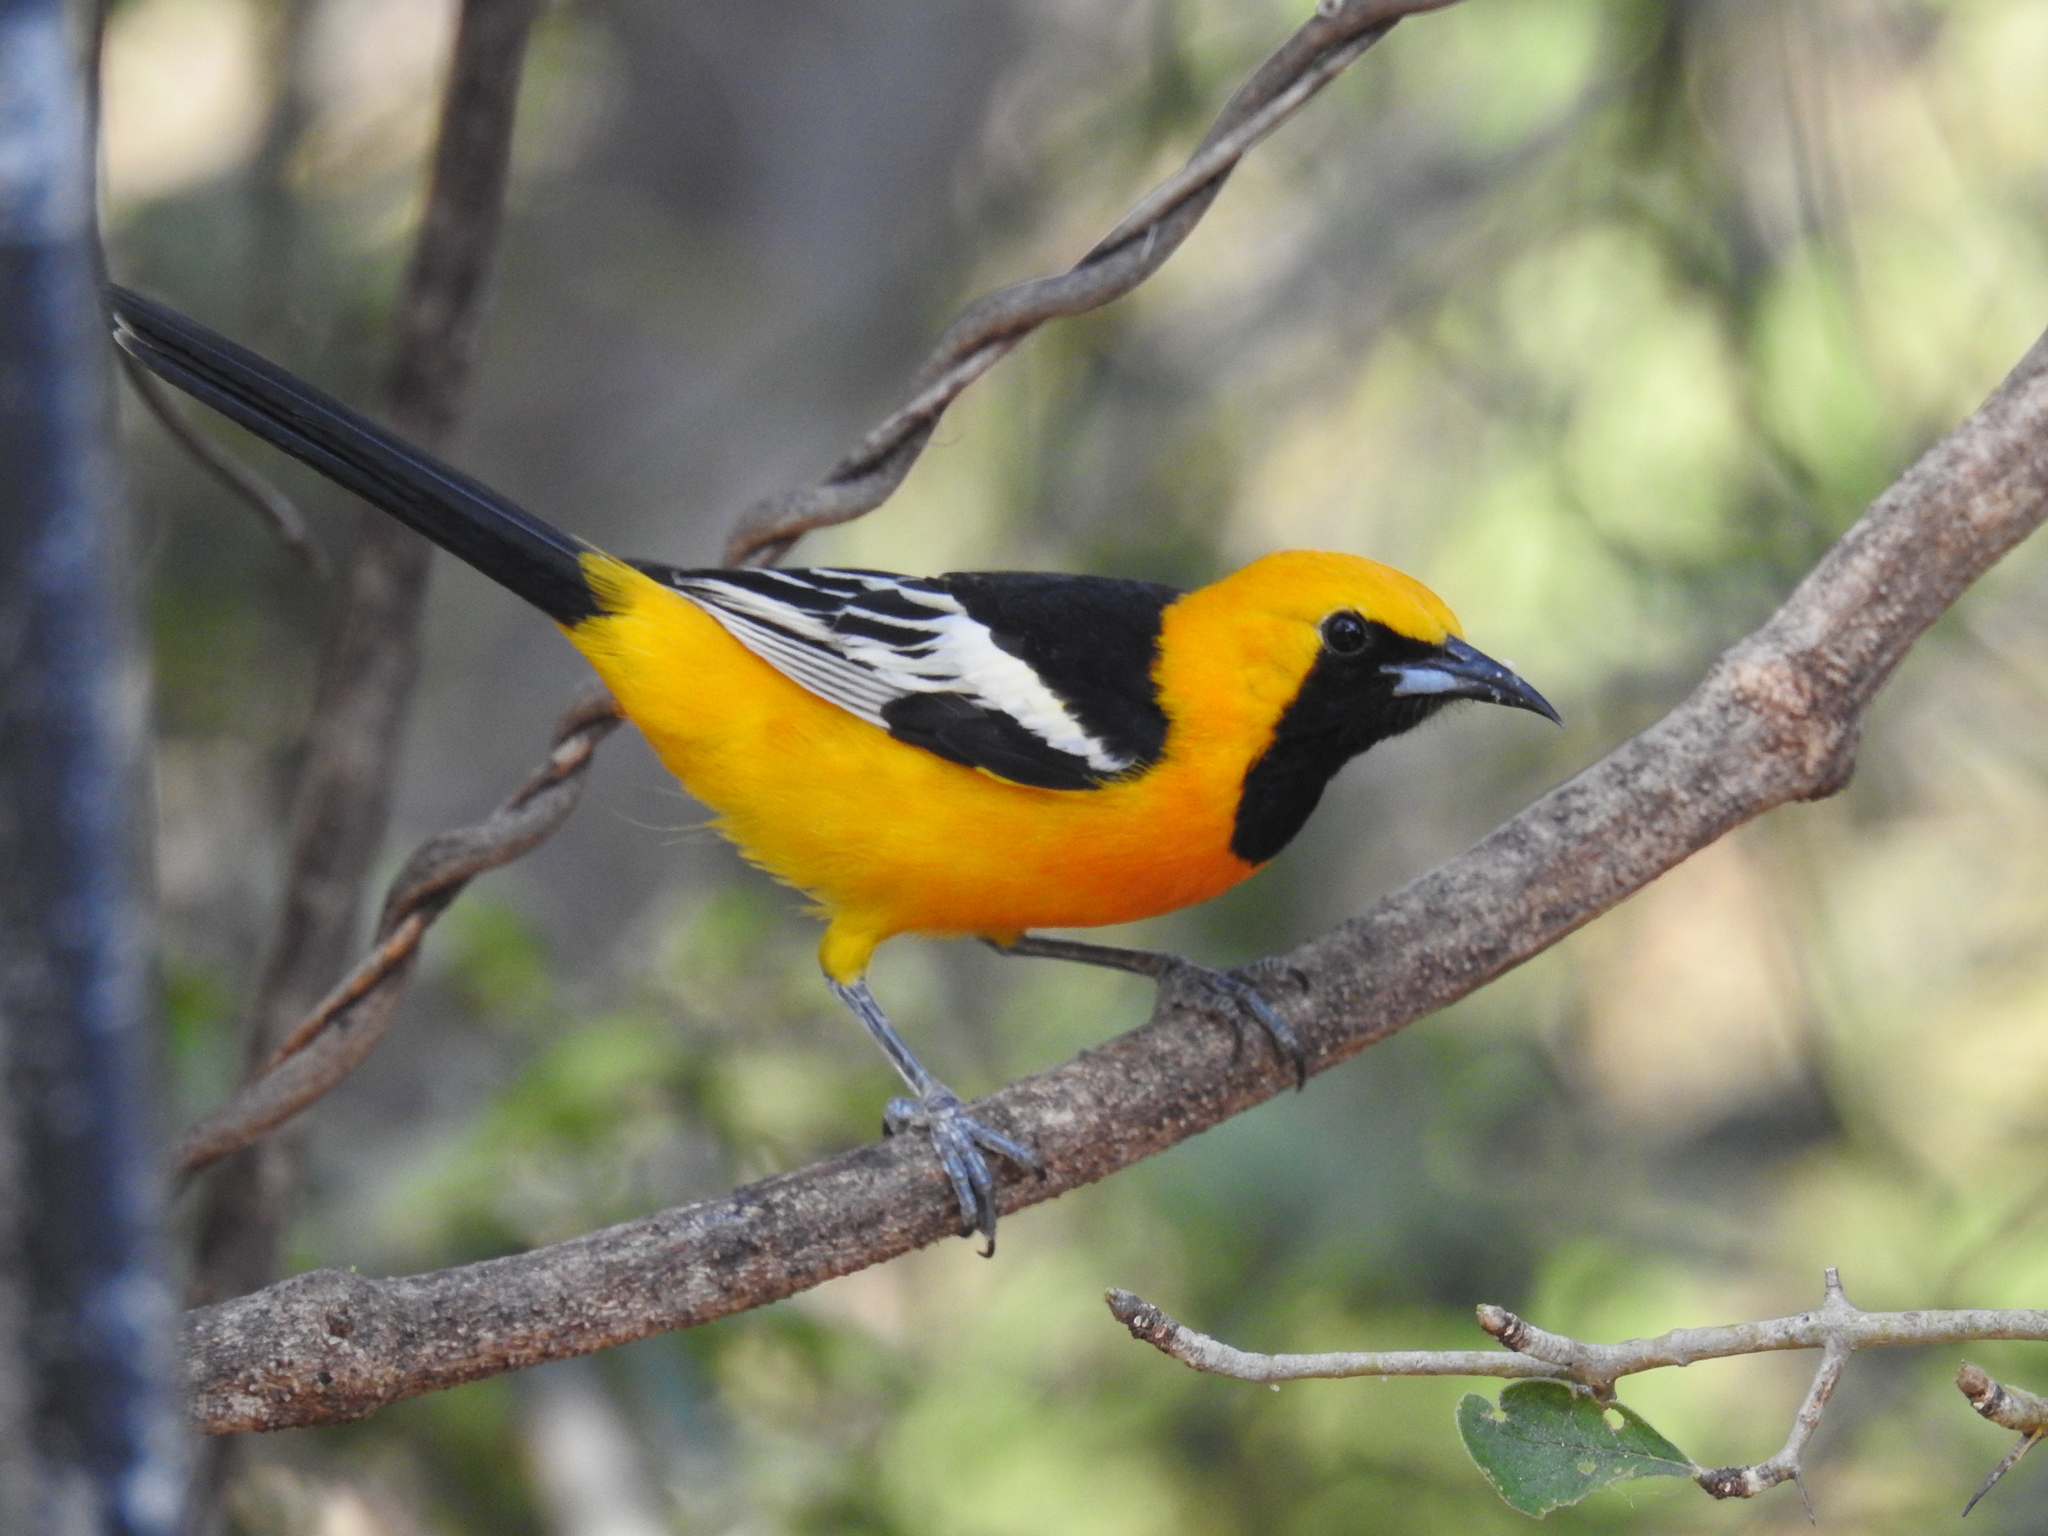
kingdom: Animalia
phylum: Chordata
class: Aves
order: Passeriformes
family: Icteridae
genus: Icterus
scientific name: Icterus cucullatus
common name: Hooded oriole
